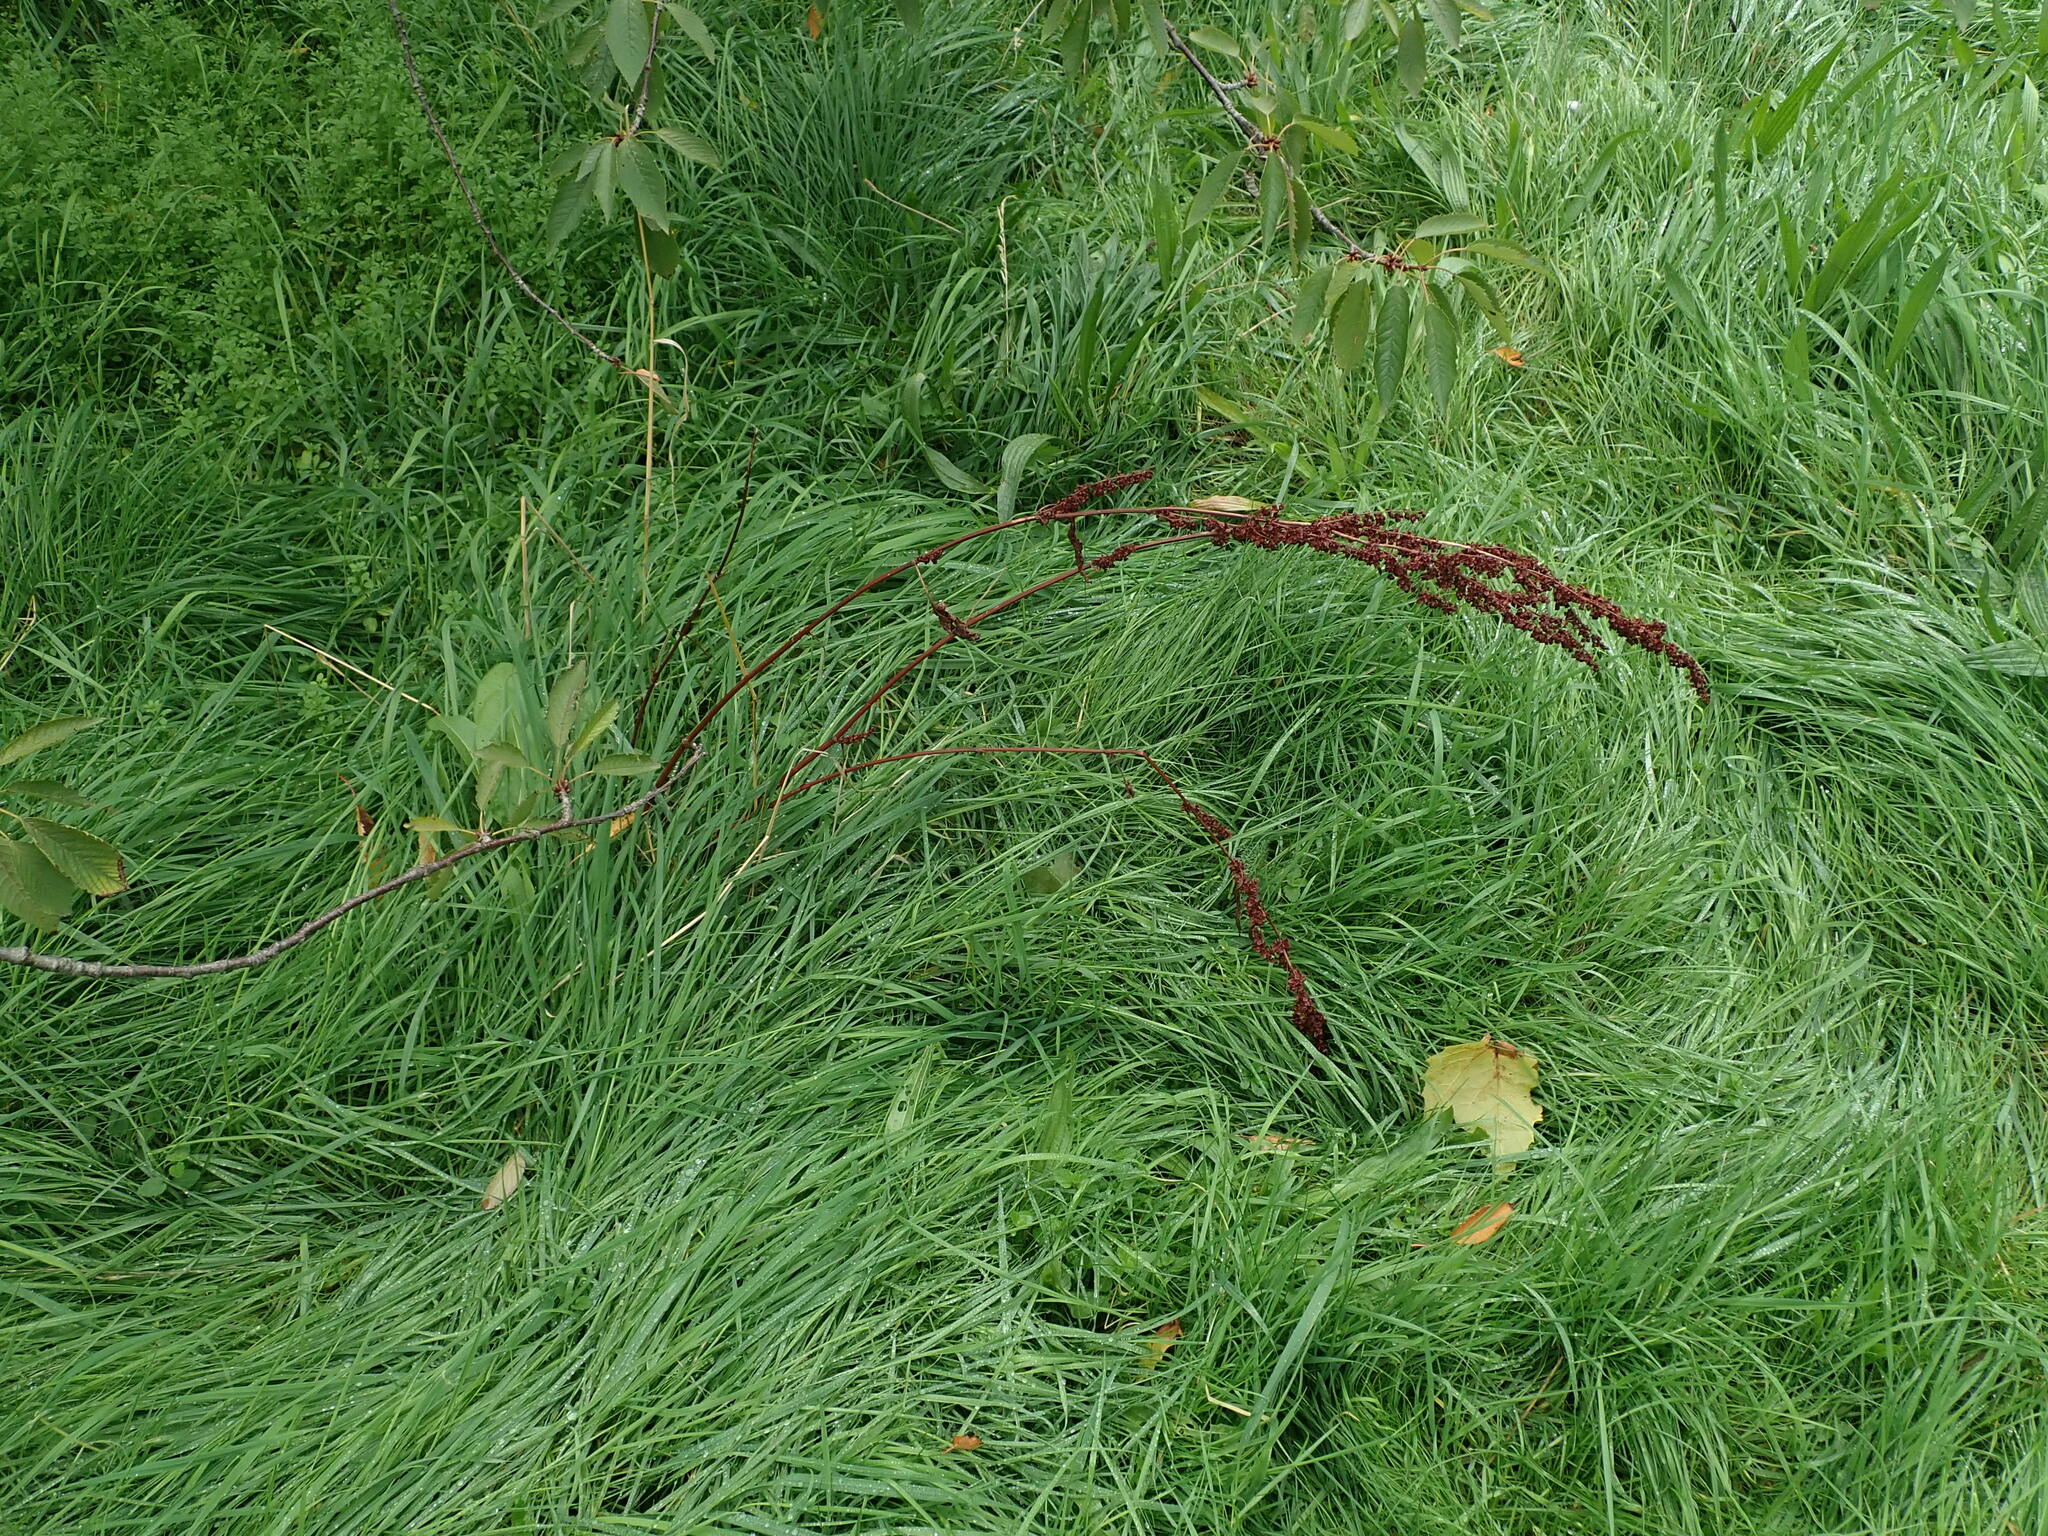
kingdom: Plantae
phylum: Tracheophyta
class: Magnoliopsida
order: Caryophyllales
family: Polygonaceae
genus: Rumex
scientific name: Rumex crispus
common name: Curled dock
